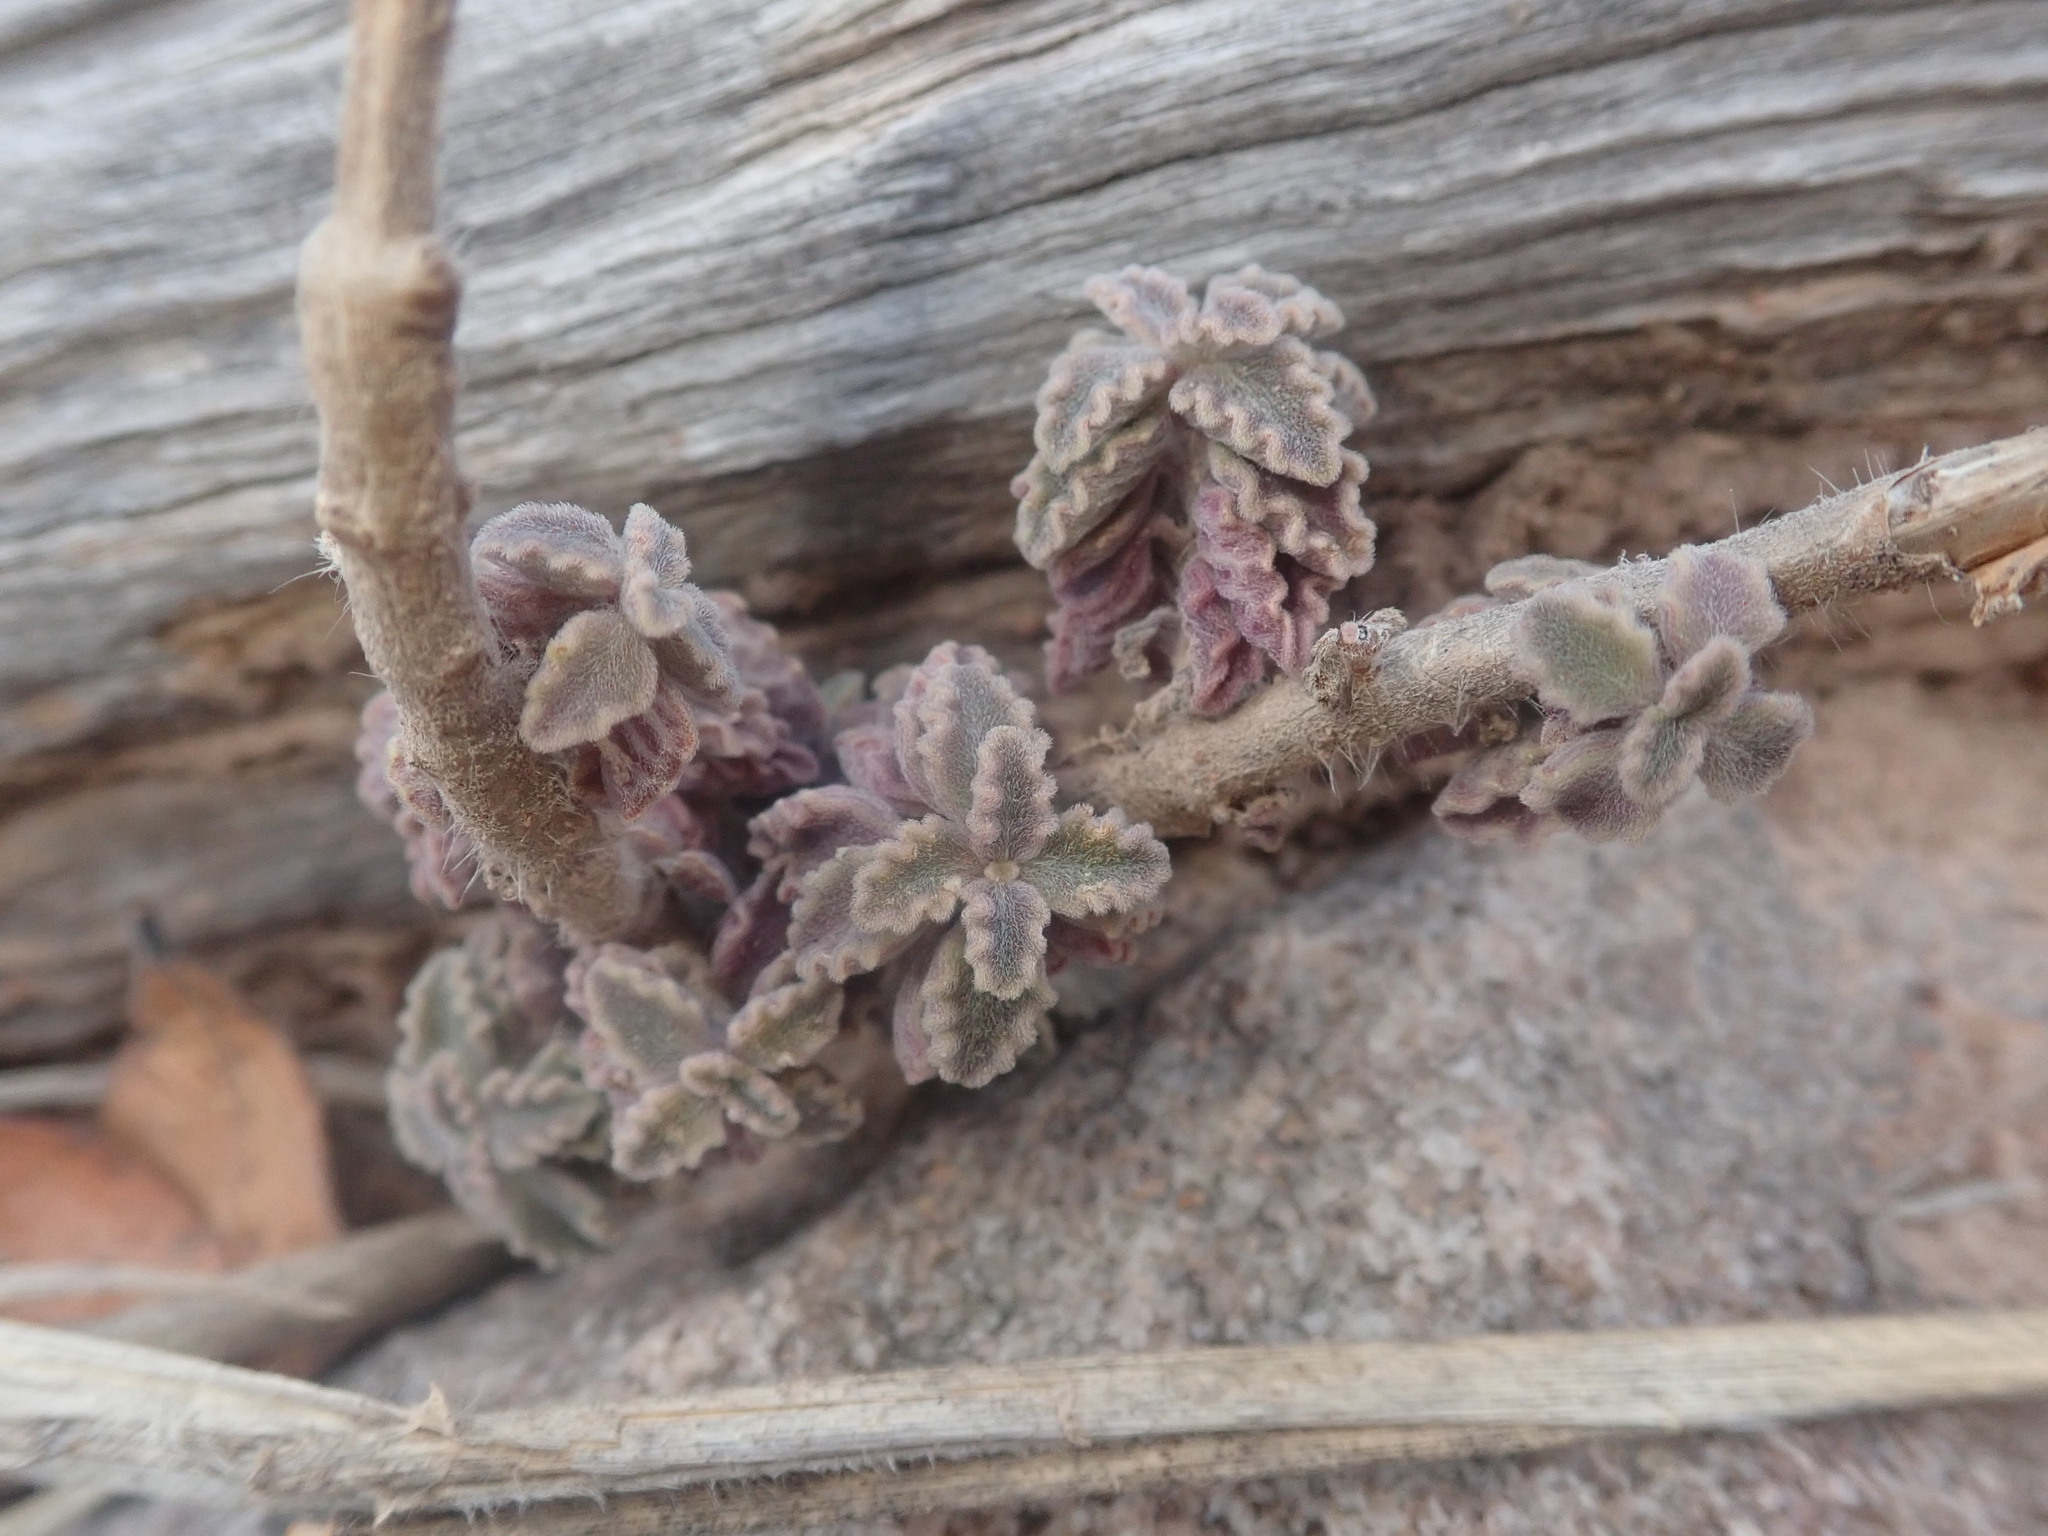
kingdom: Plantae
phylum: Tracheophyta
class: Magnoliopsida
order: Lamiales
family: Lamiaceae
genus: Coleus
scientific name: Coleus lasianthus
